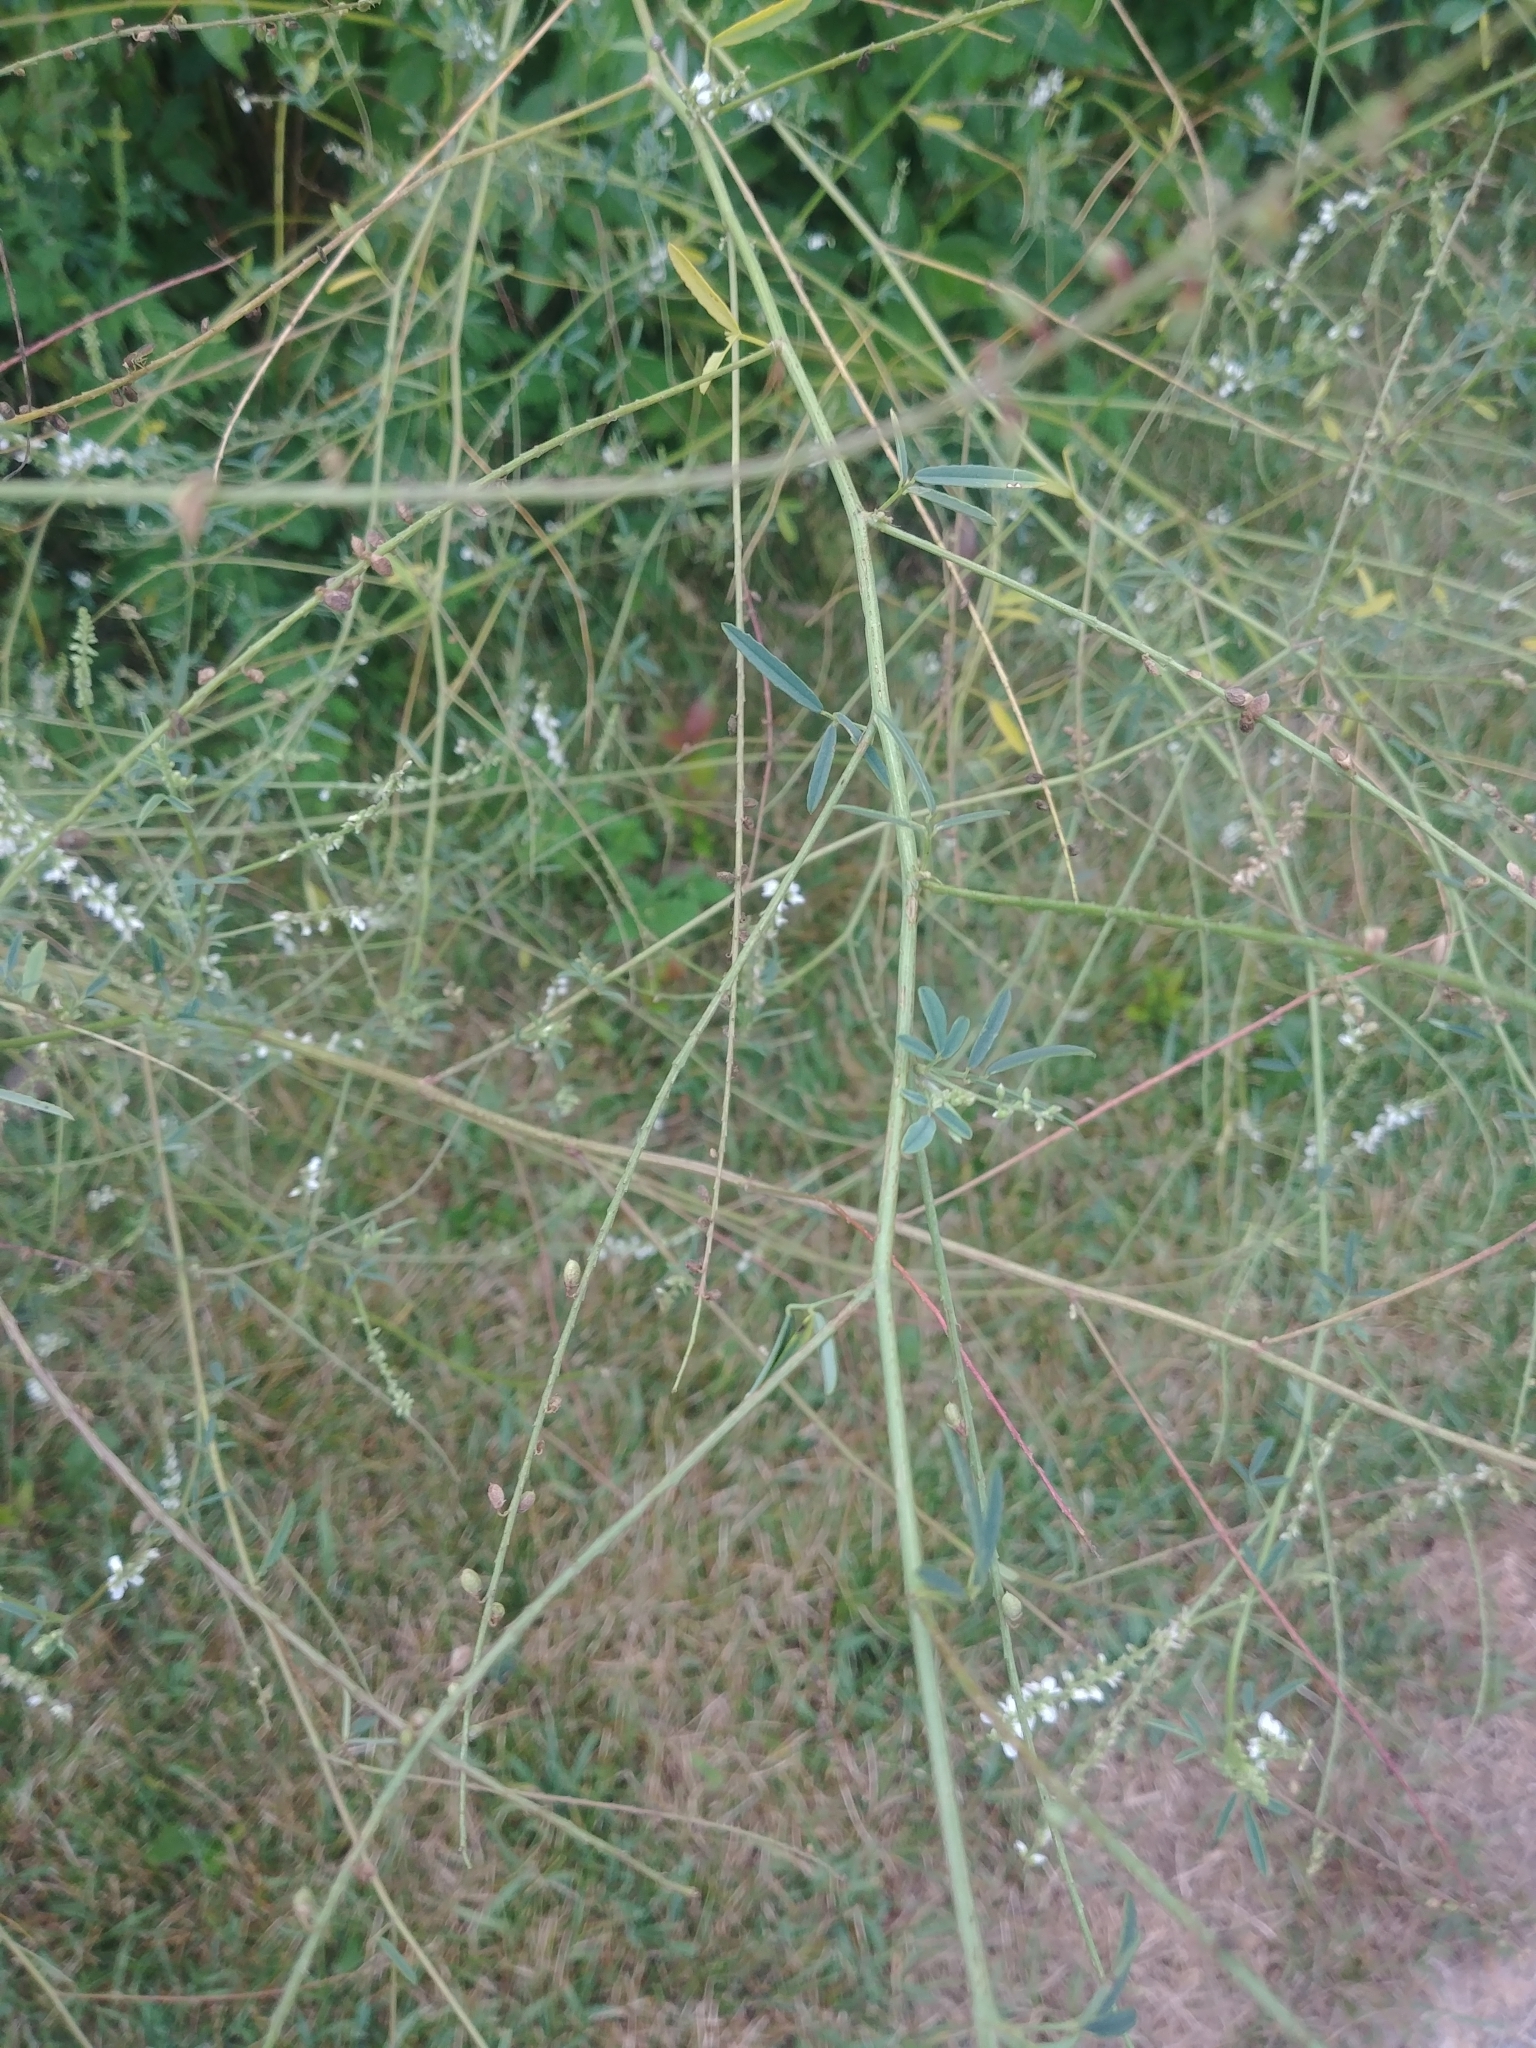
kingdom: Plantae
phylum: Tracheophyta
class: Magnoliopsida
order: Fabales
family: Fabaceae
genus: Melilotus
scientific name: Melilotus albus
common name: White melilot
